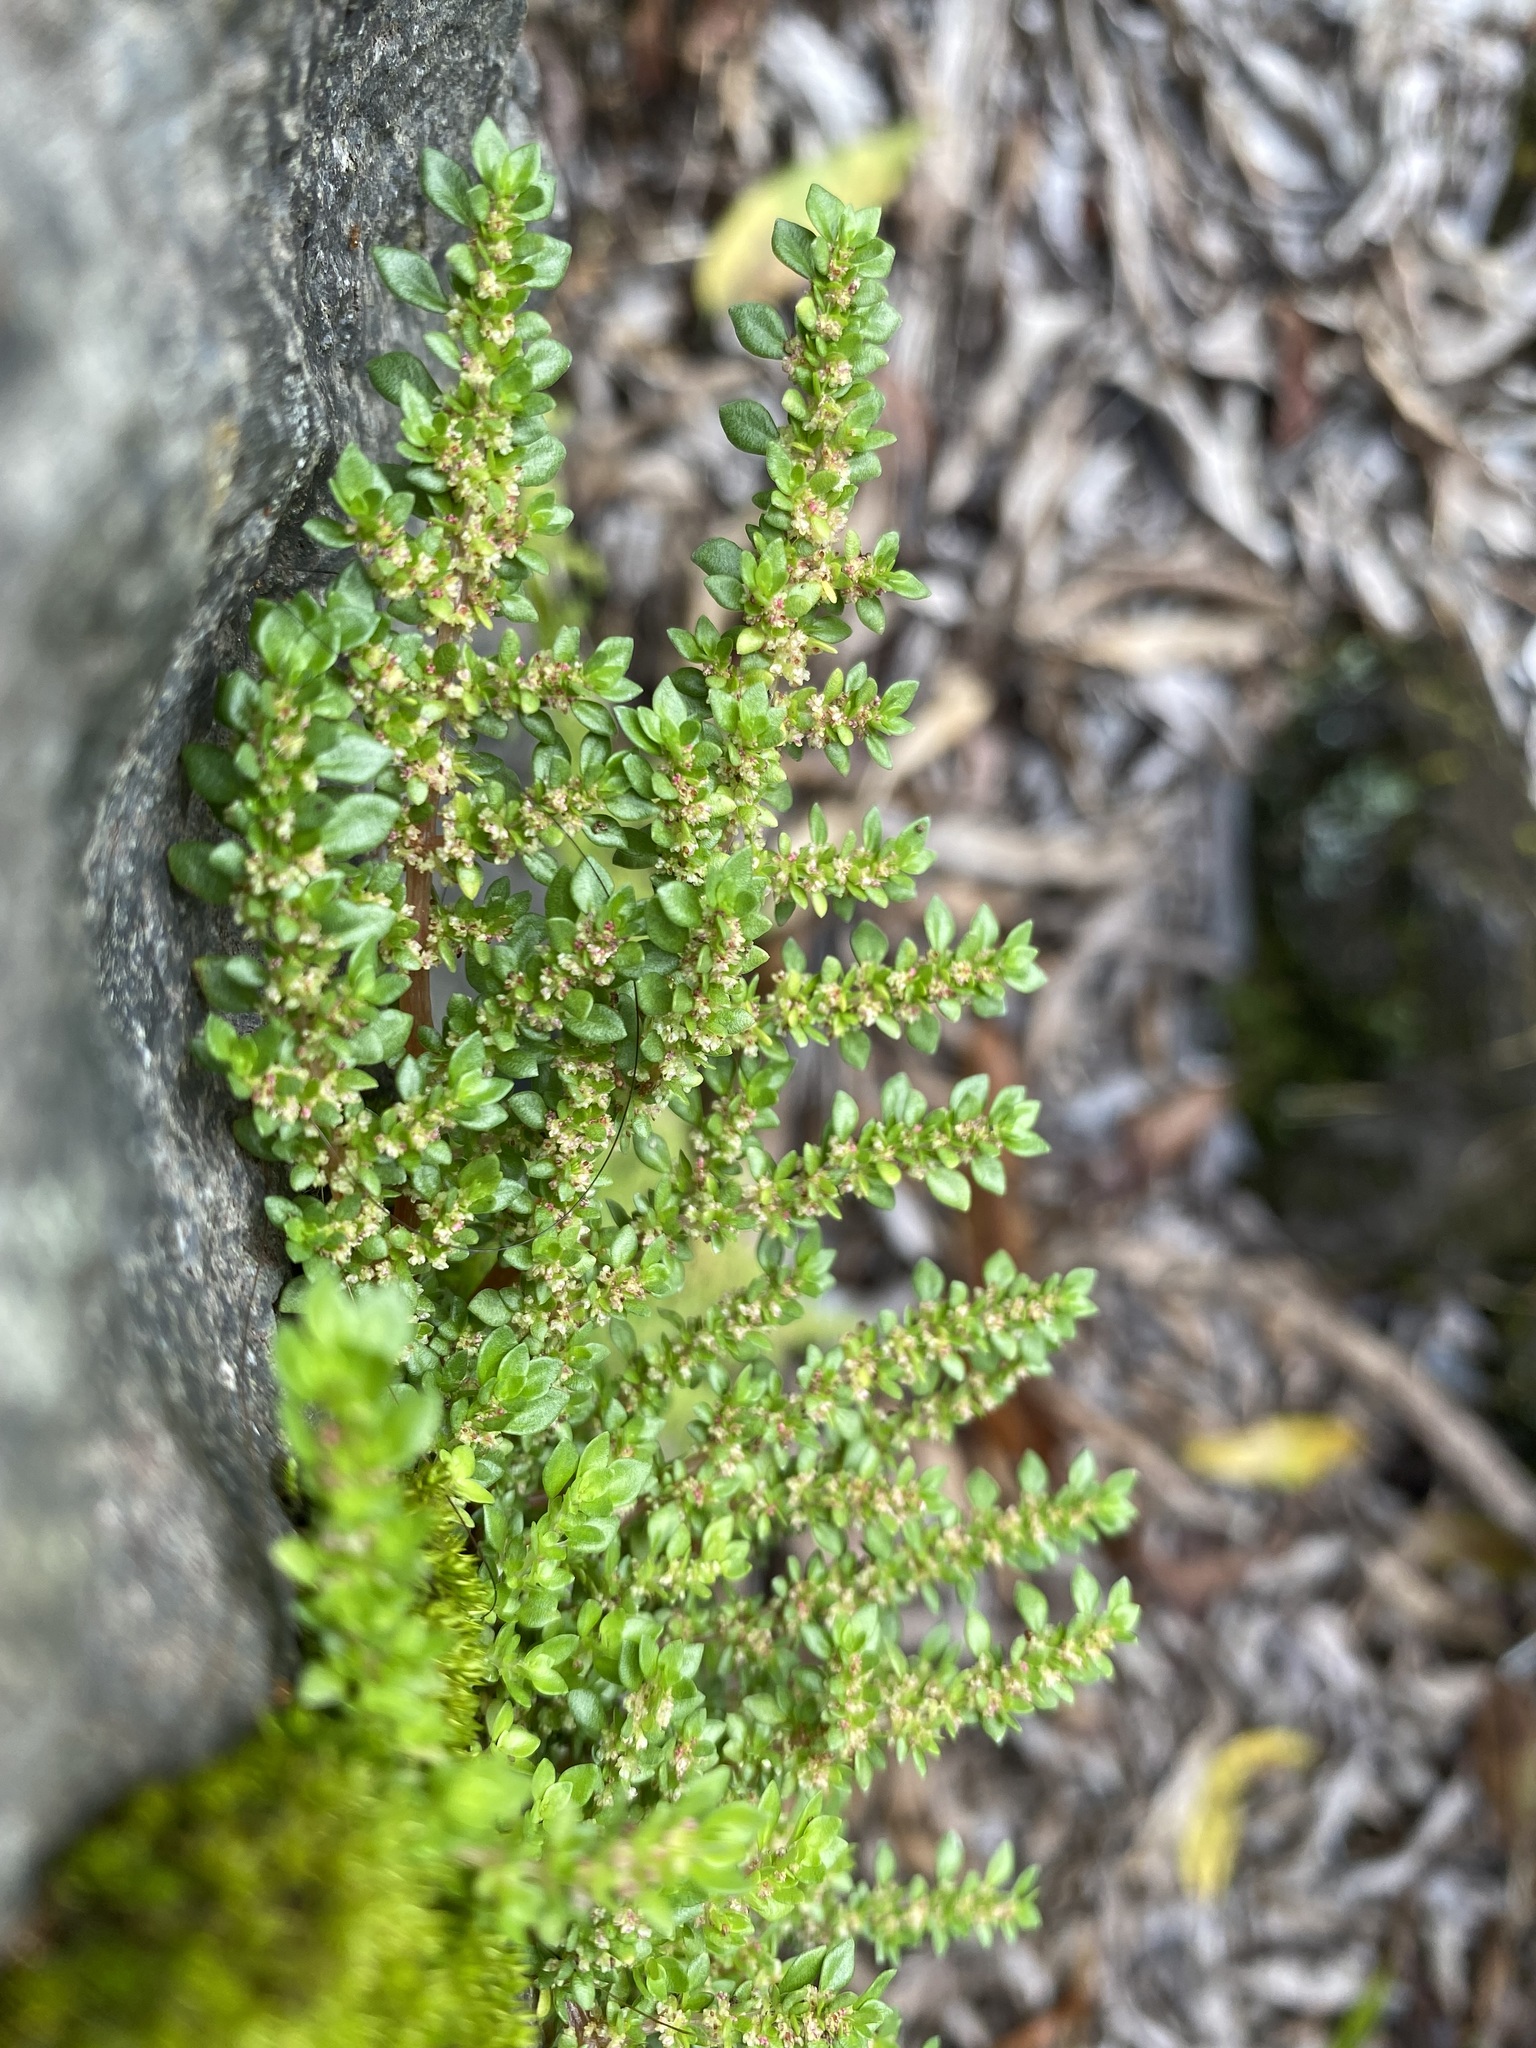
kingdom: Plantae
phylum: Tracheophyta
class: Magnoliopsida
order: Rosales
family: Urticaceae
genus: Pilea
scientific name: Pilea microphylla
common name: Artillery-plant
